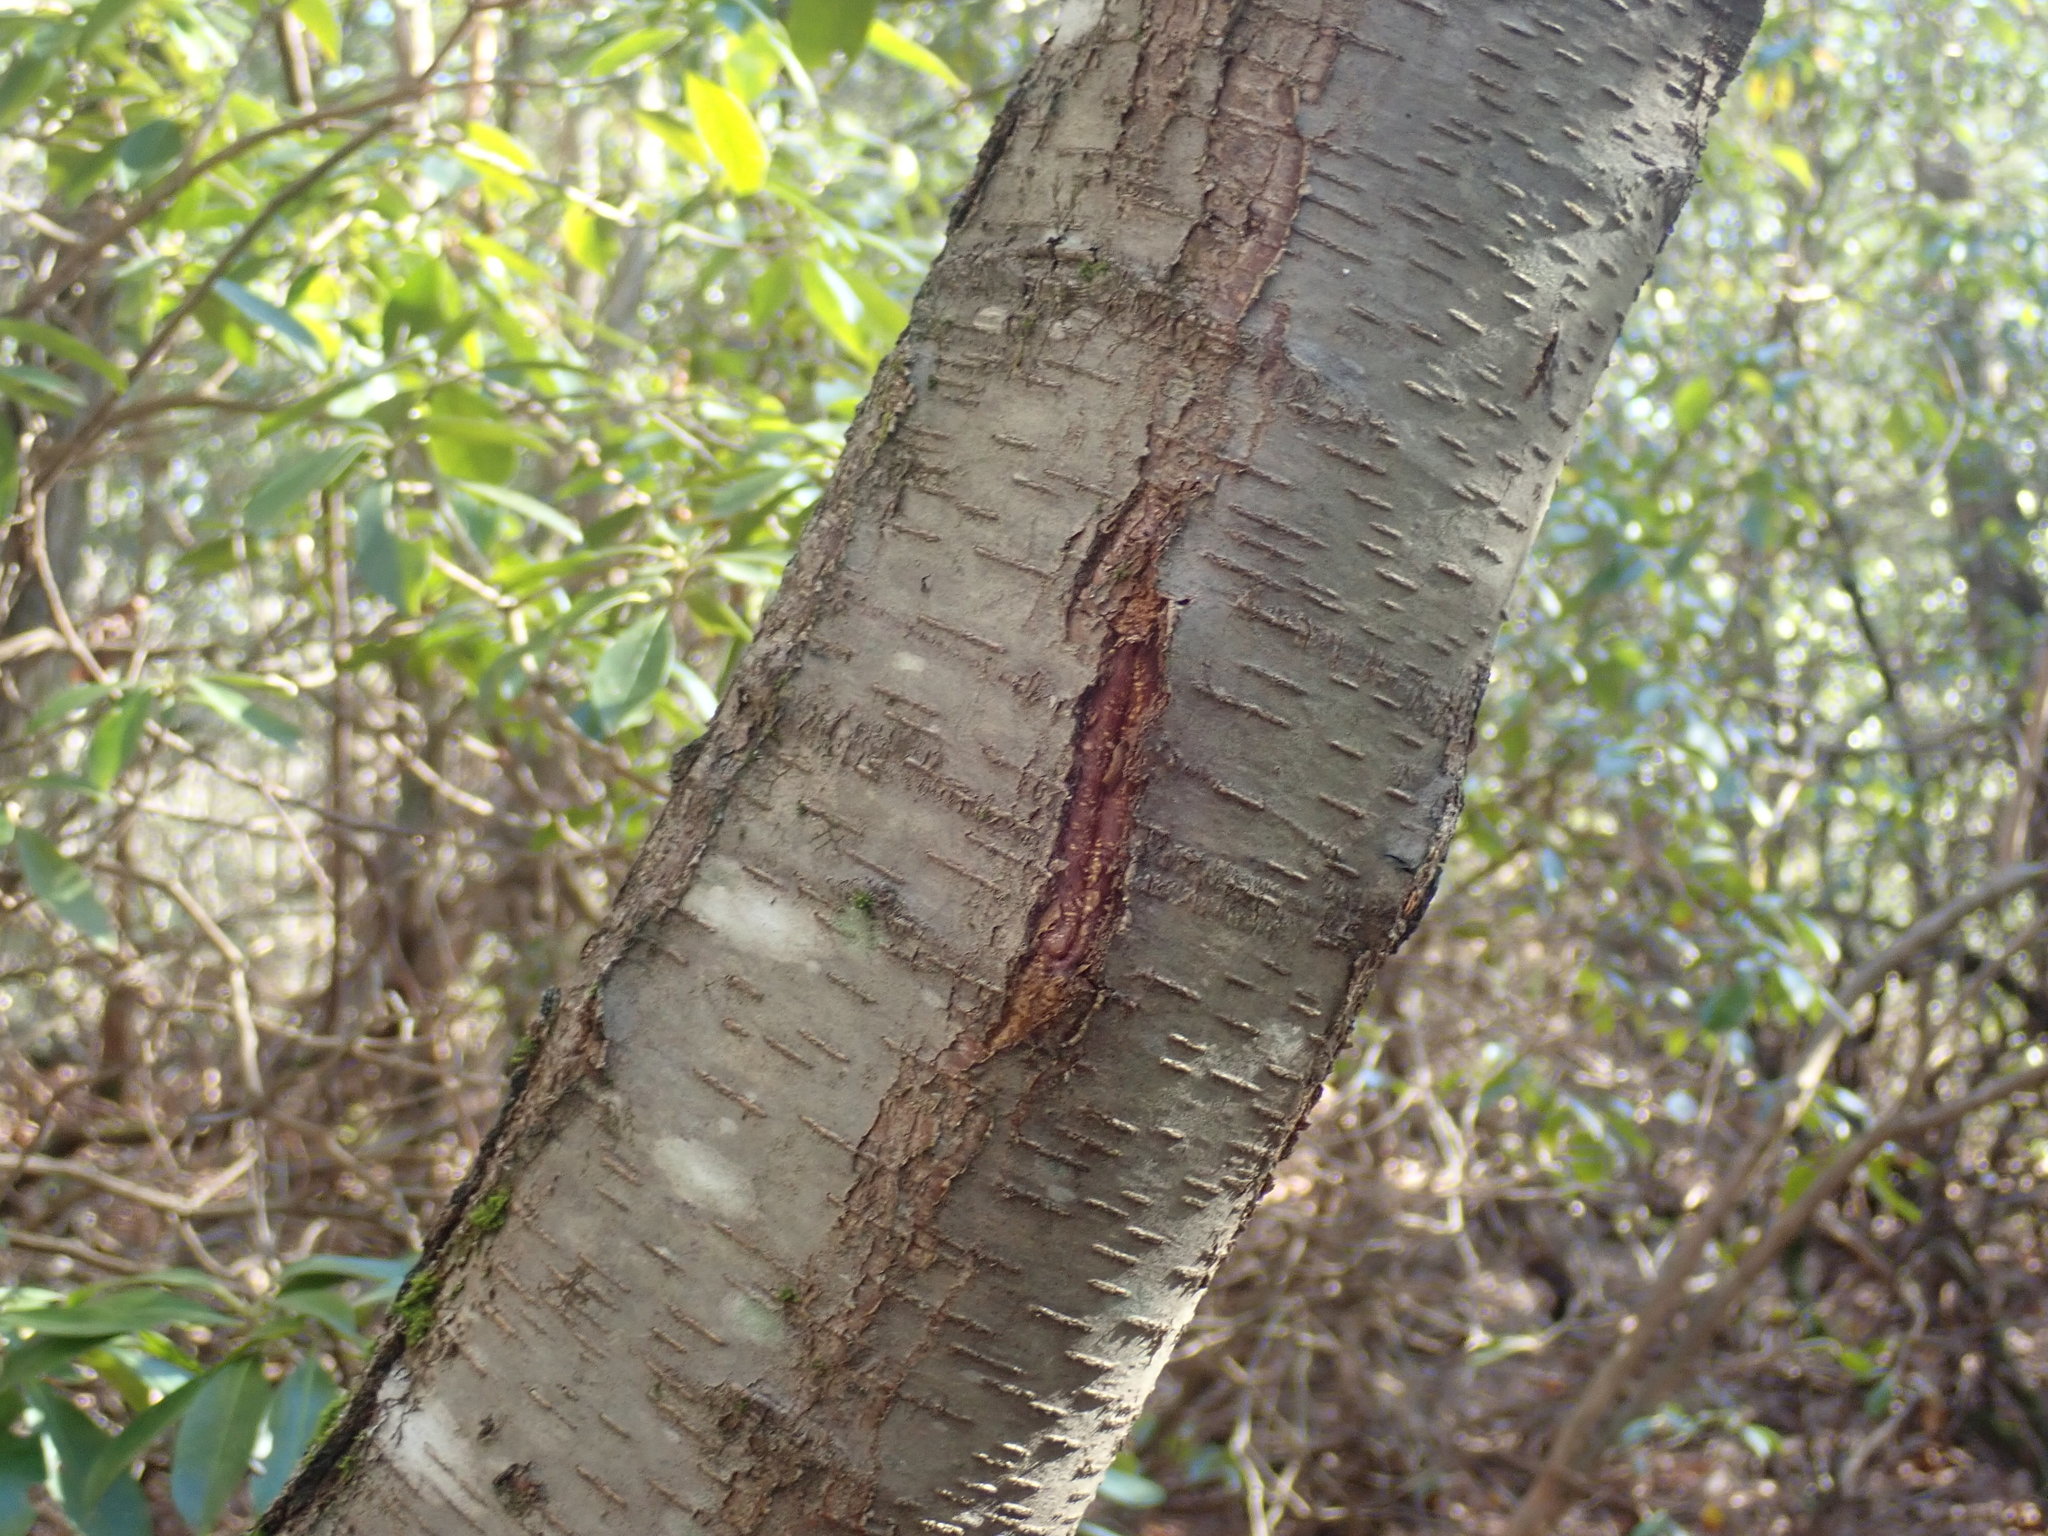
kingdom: Plantae
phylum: Tracheophyta
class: Magnoliopsida
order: Fagales
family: Betulaceae
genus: Betula
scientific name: Betula lenta
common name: Black birch
